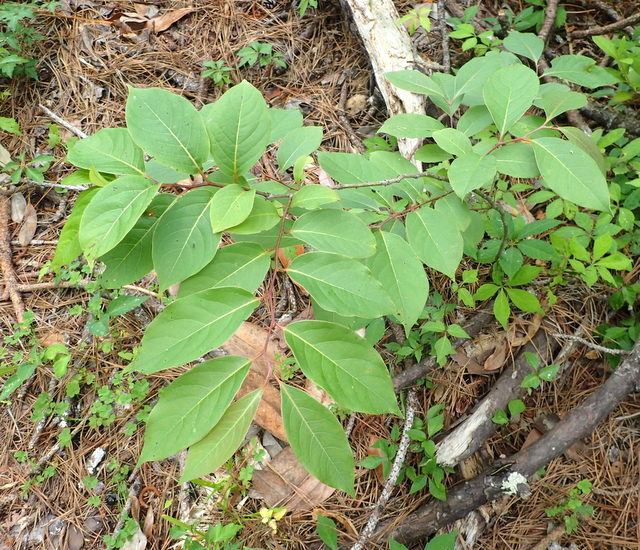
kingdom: Plantae
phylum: Tracheophyta
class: Magnoliopsida
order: Ericales
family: Ebenaceae
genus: Diospyros
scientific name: Diospyros virginiana
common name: Persimmon
